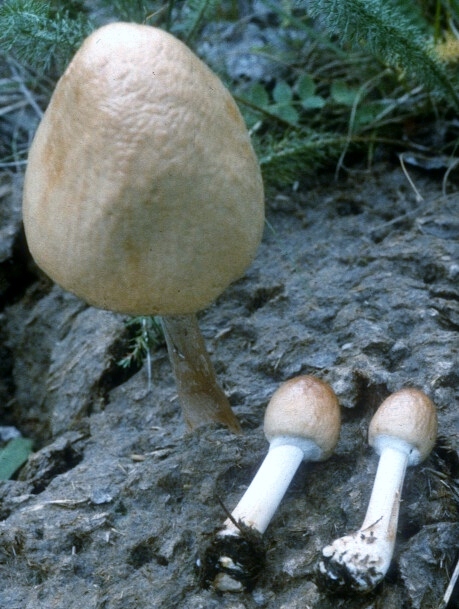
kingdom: Fungi
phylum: Basidiomycota
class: Agaricomycetes
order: Agaricales
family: Strophariaceae
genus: Protostropharia
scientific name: Protostropharia semiglobata
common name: Dung roundhead
